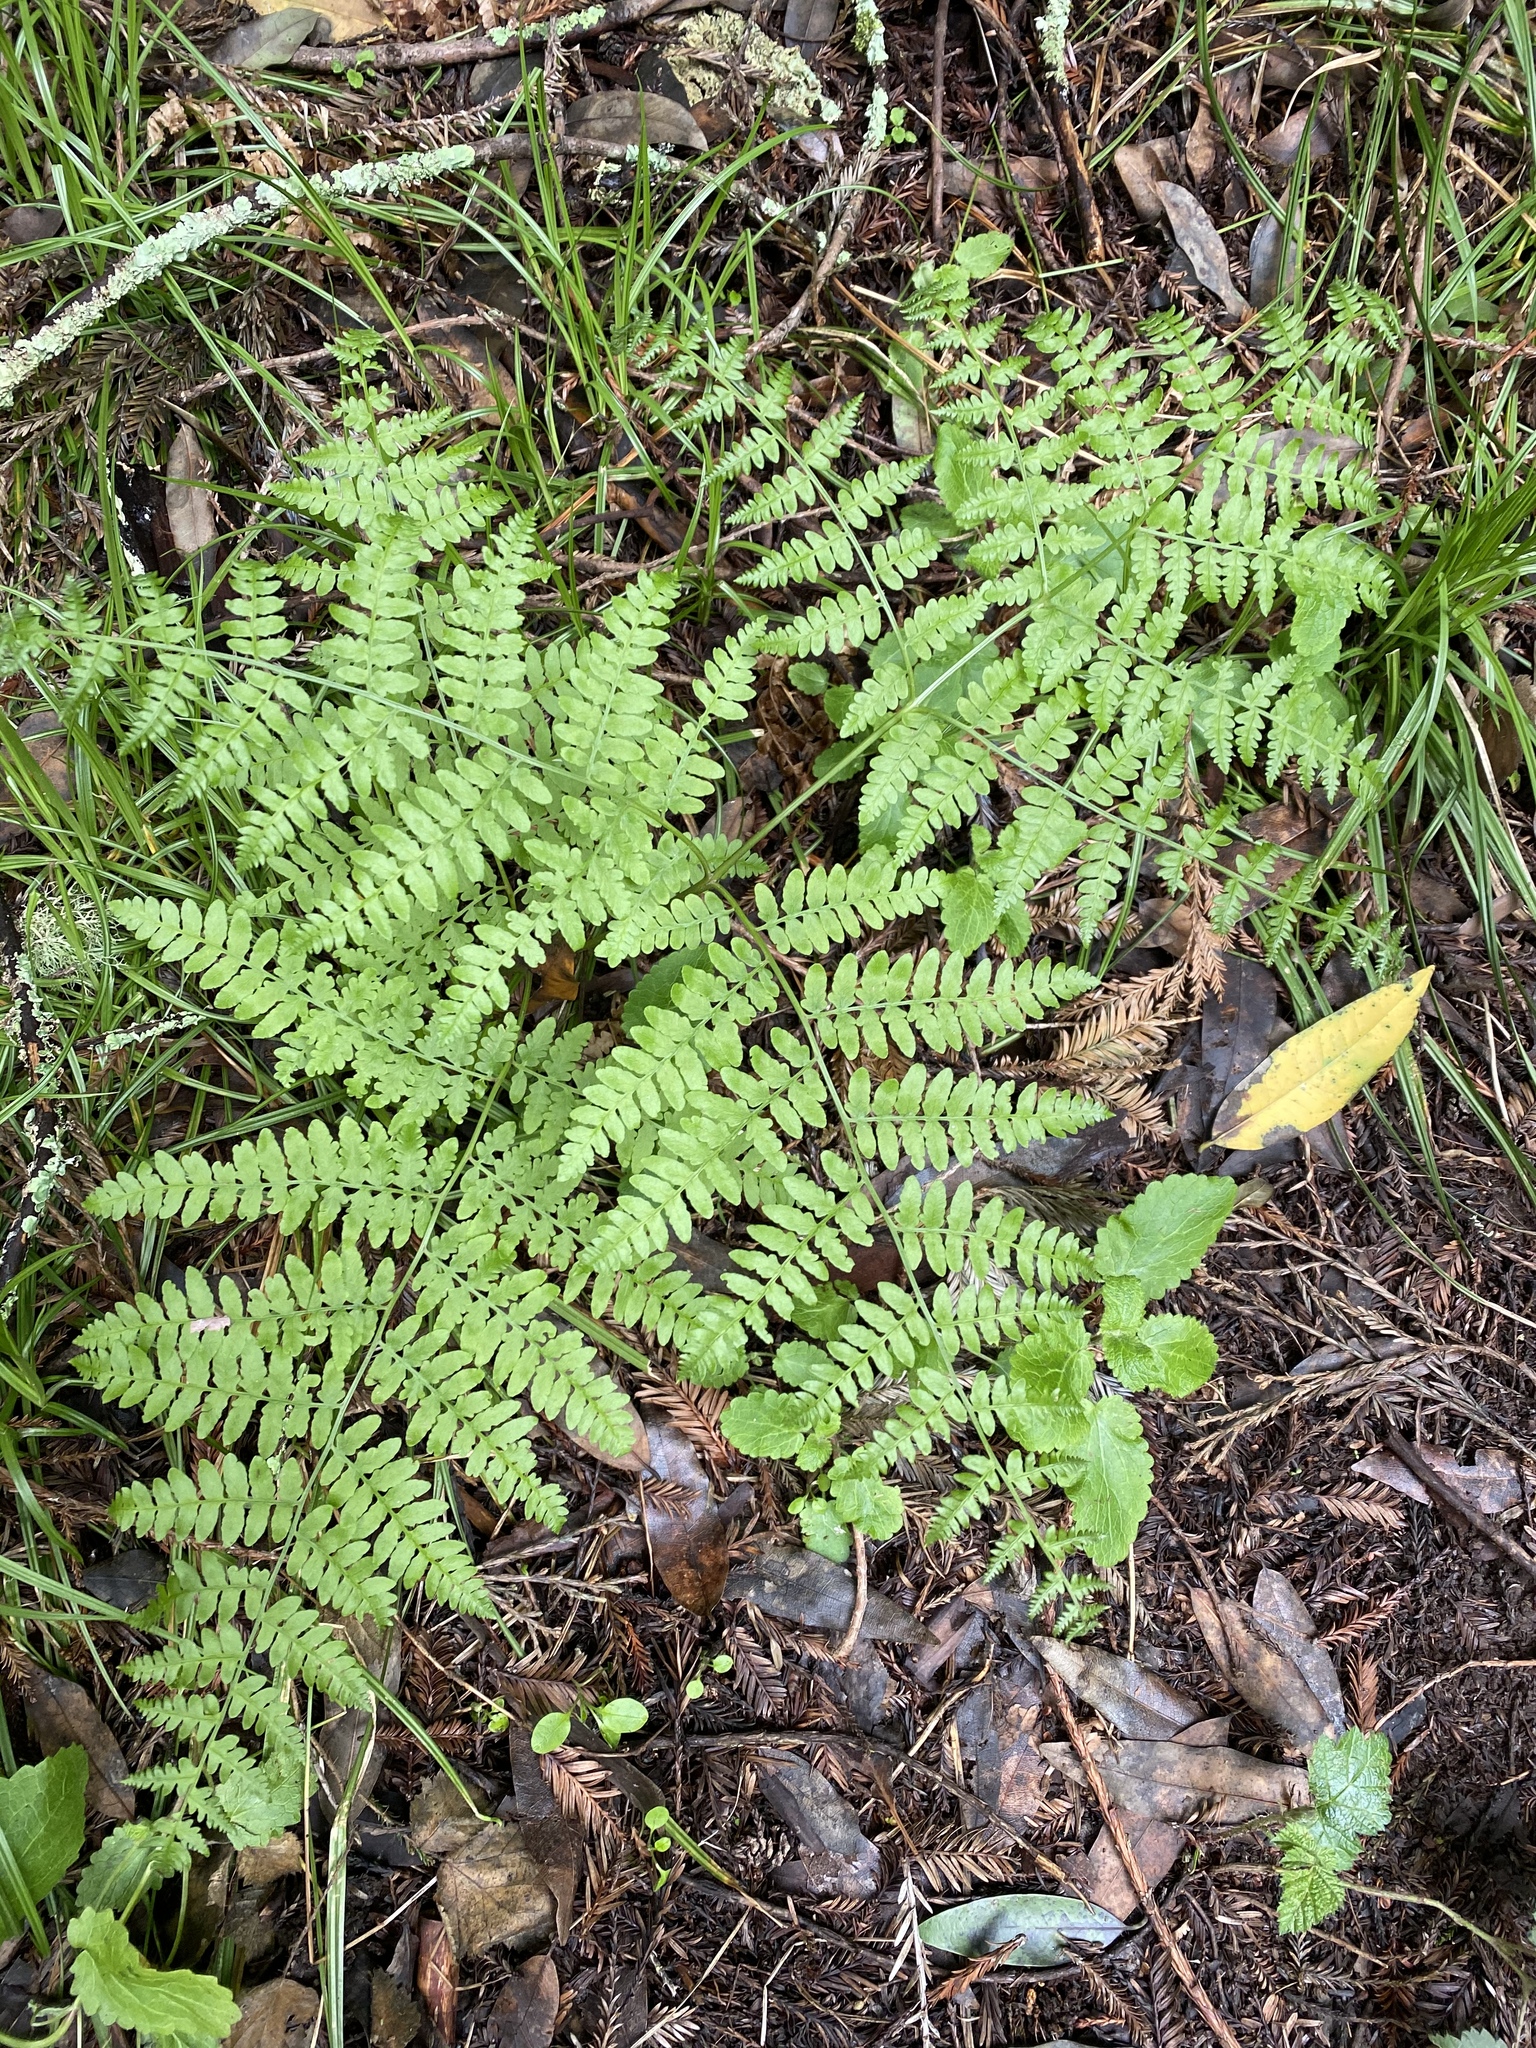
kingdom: Plantae
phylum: Tracheophyta
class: Polypodiopsida
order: Polypodiales
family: Dennstaedtiaceae
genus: Pteridium
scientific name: Pteridium aquilinum
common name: Bracken
